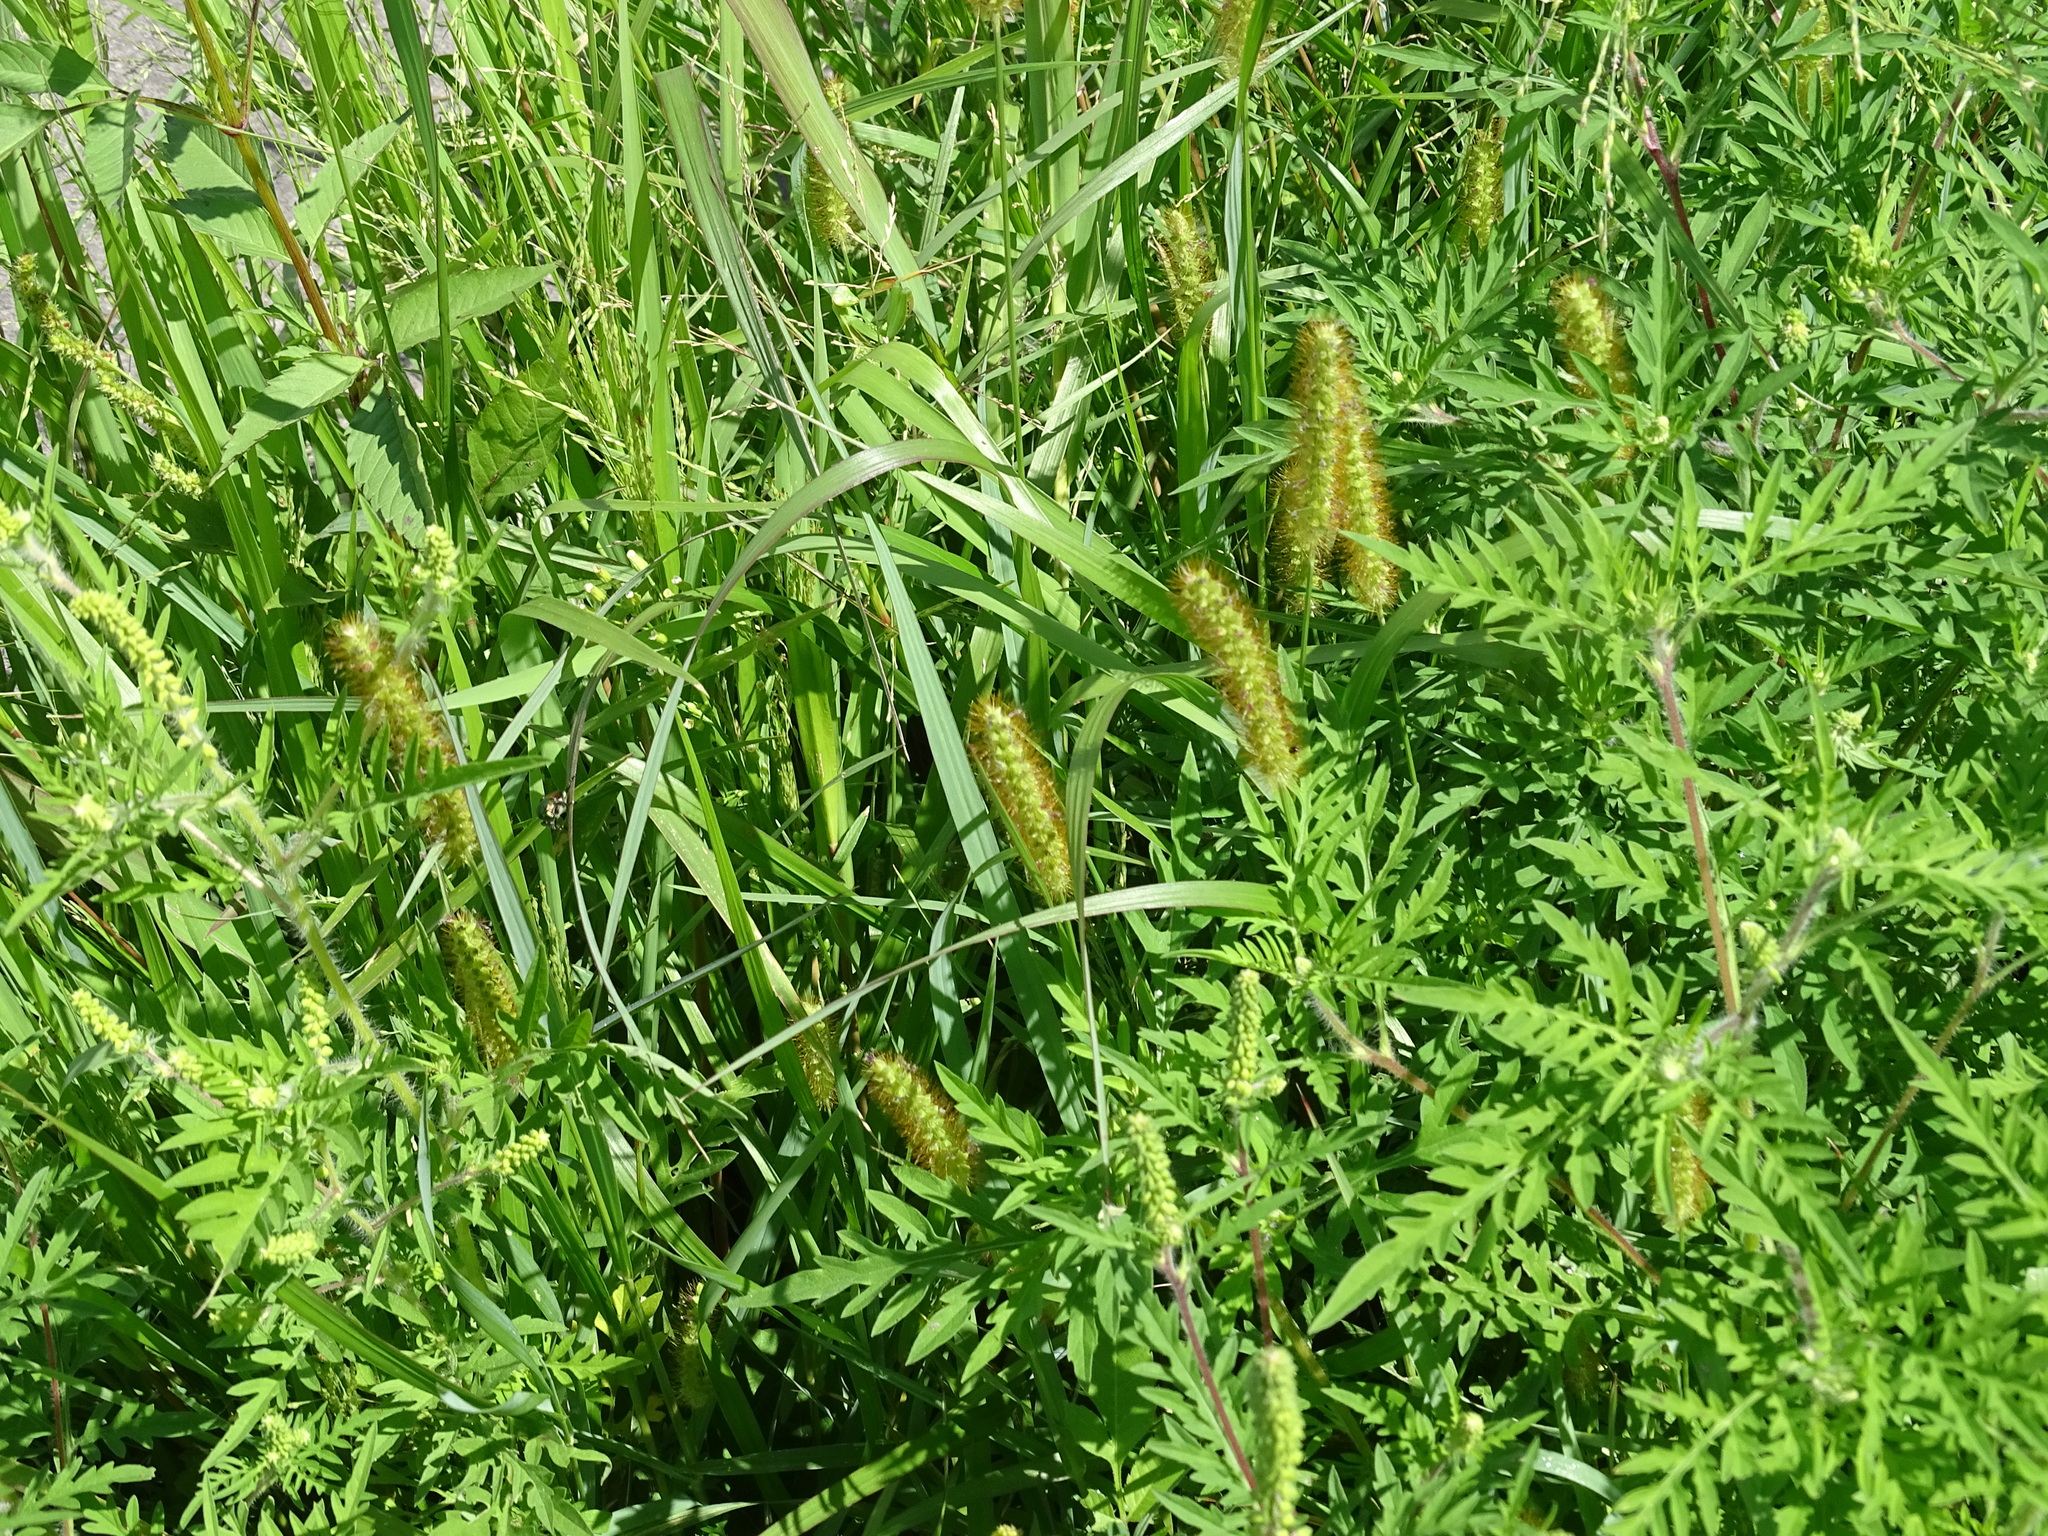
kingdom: Plantae
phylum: Tracheophyta
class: Liliopsida
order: Poales
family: Poaceae
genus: Setaria
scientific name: Setaria pumila
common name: Yellow bristle-grass
